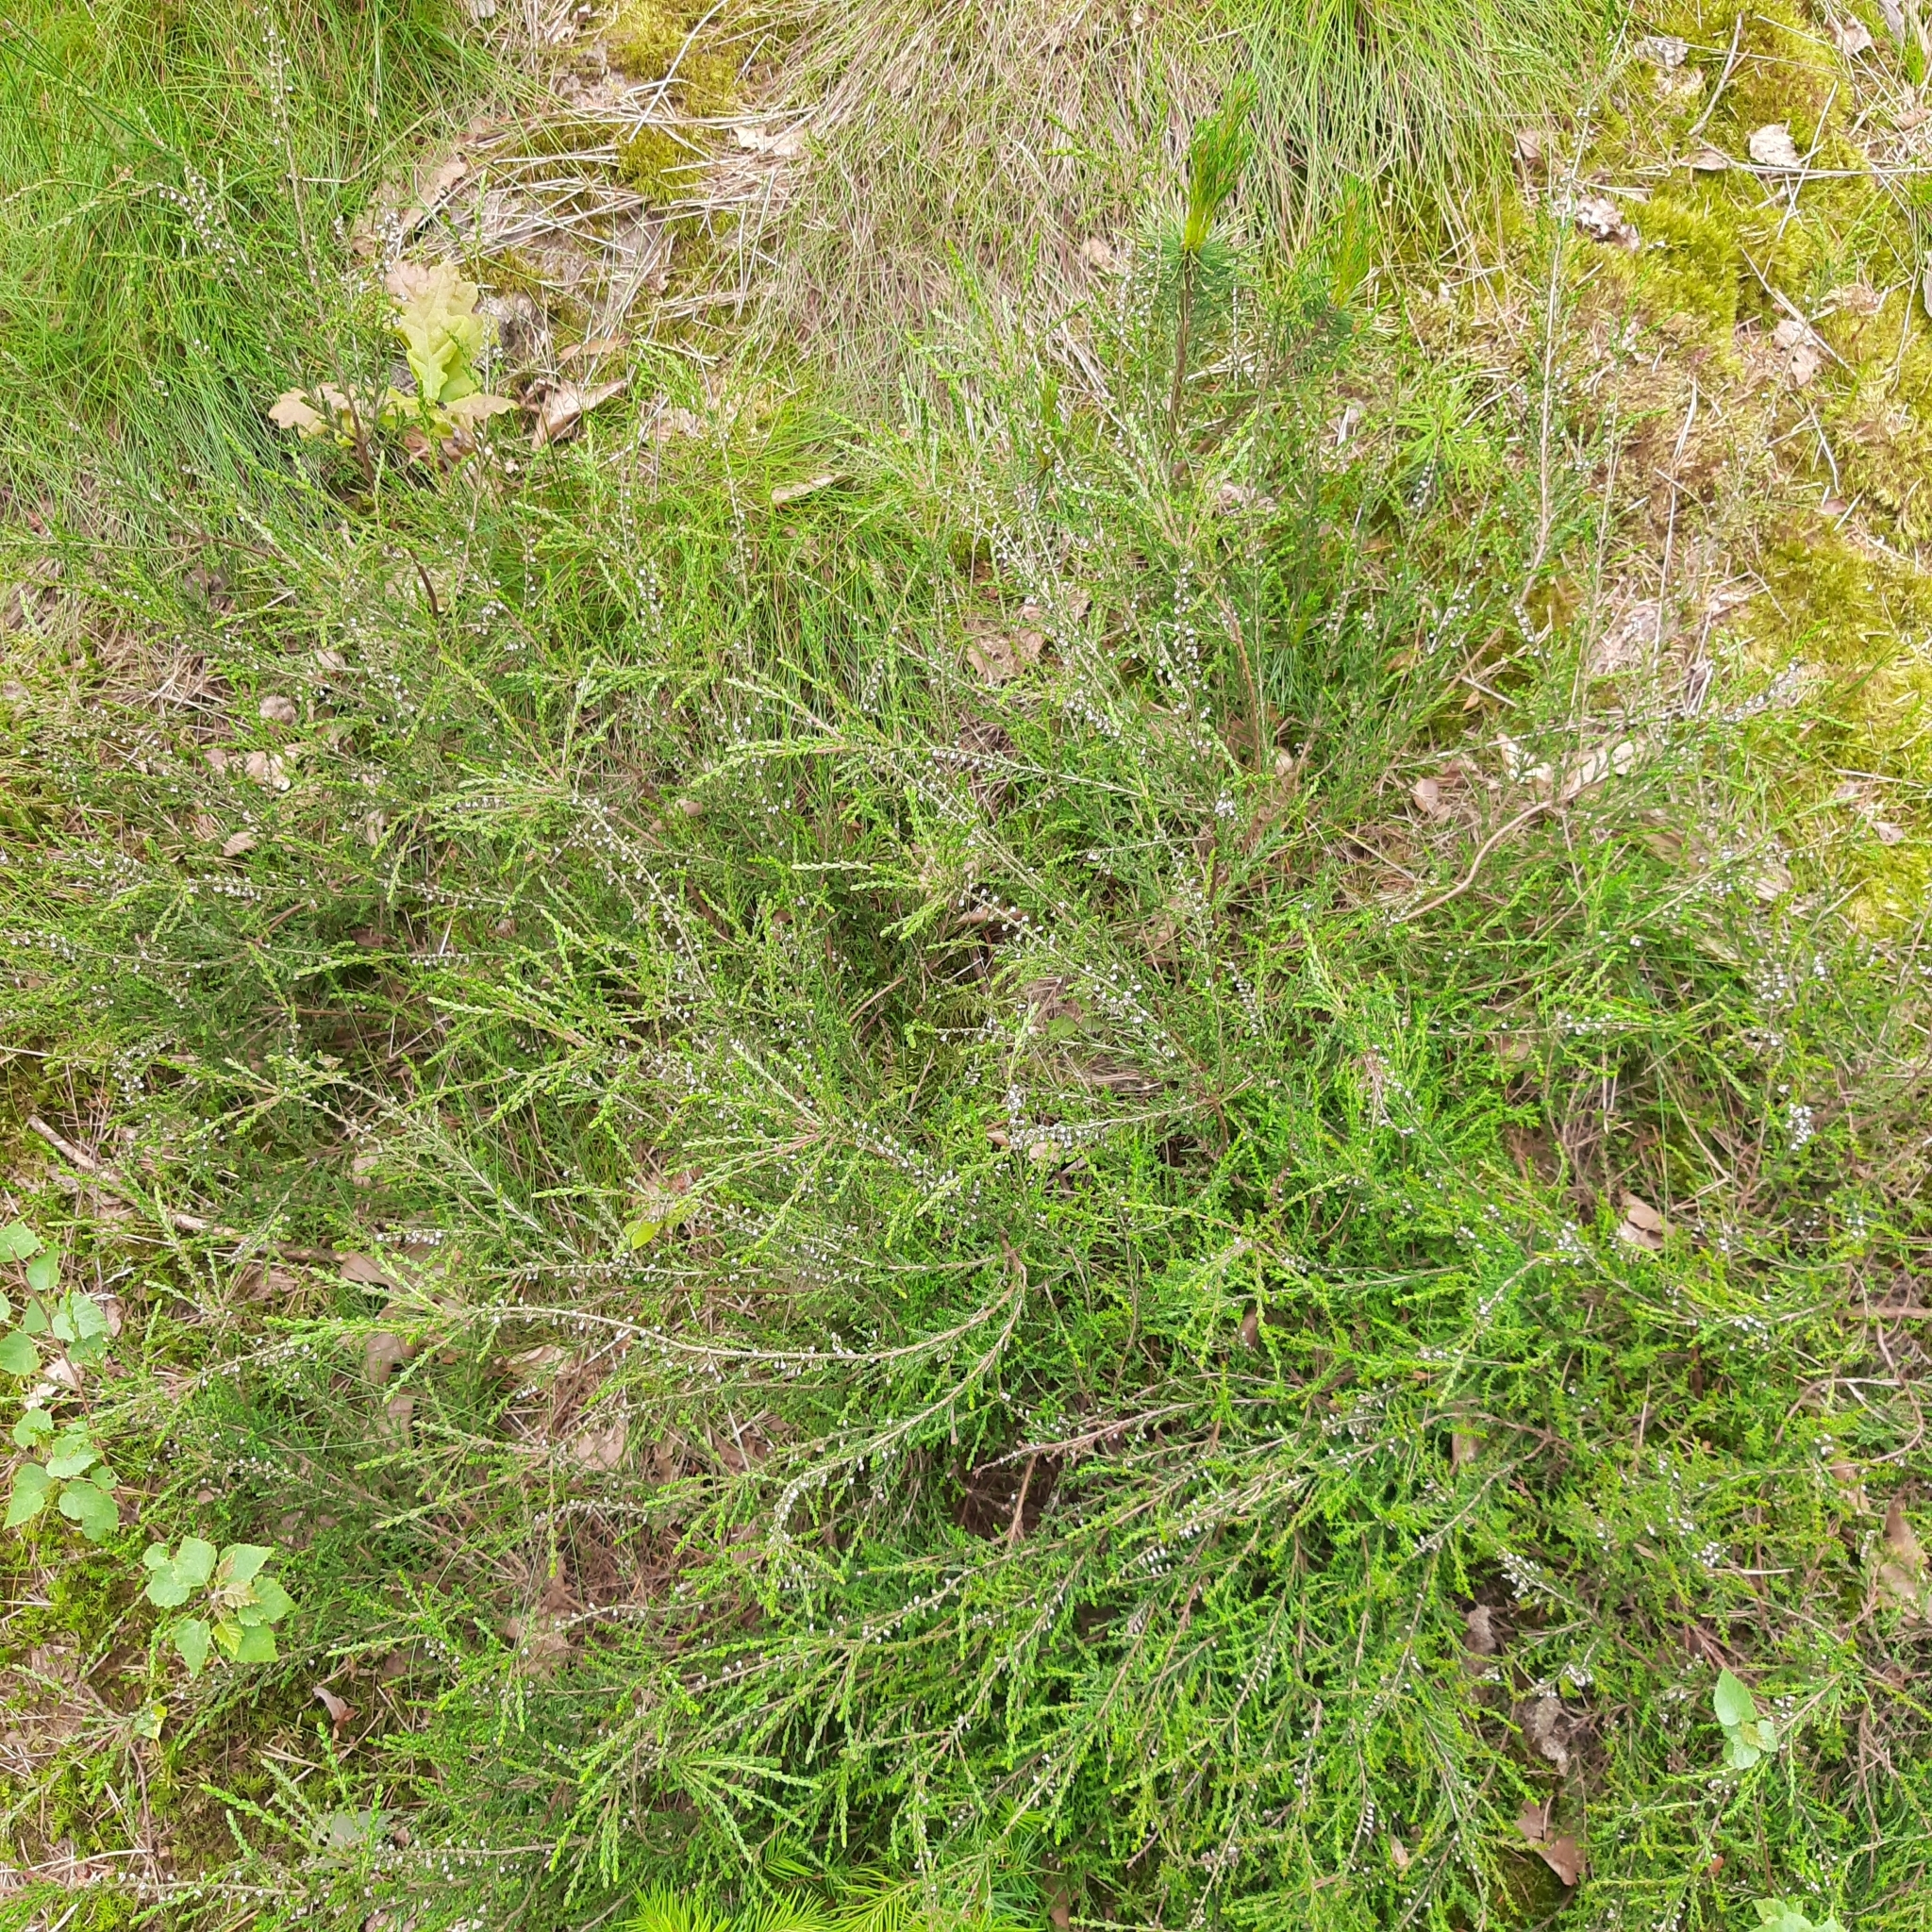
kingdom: Plantae
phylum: Tracheophyta
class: Magnoliopsida
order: Ericales
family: Ericaceae
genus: Calluna
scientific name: Calluna vulgaris
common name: Heather
